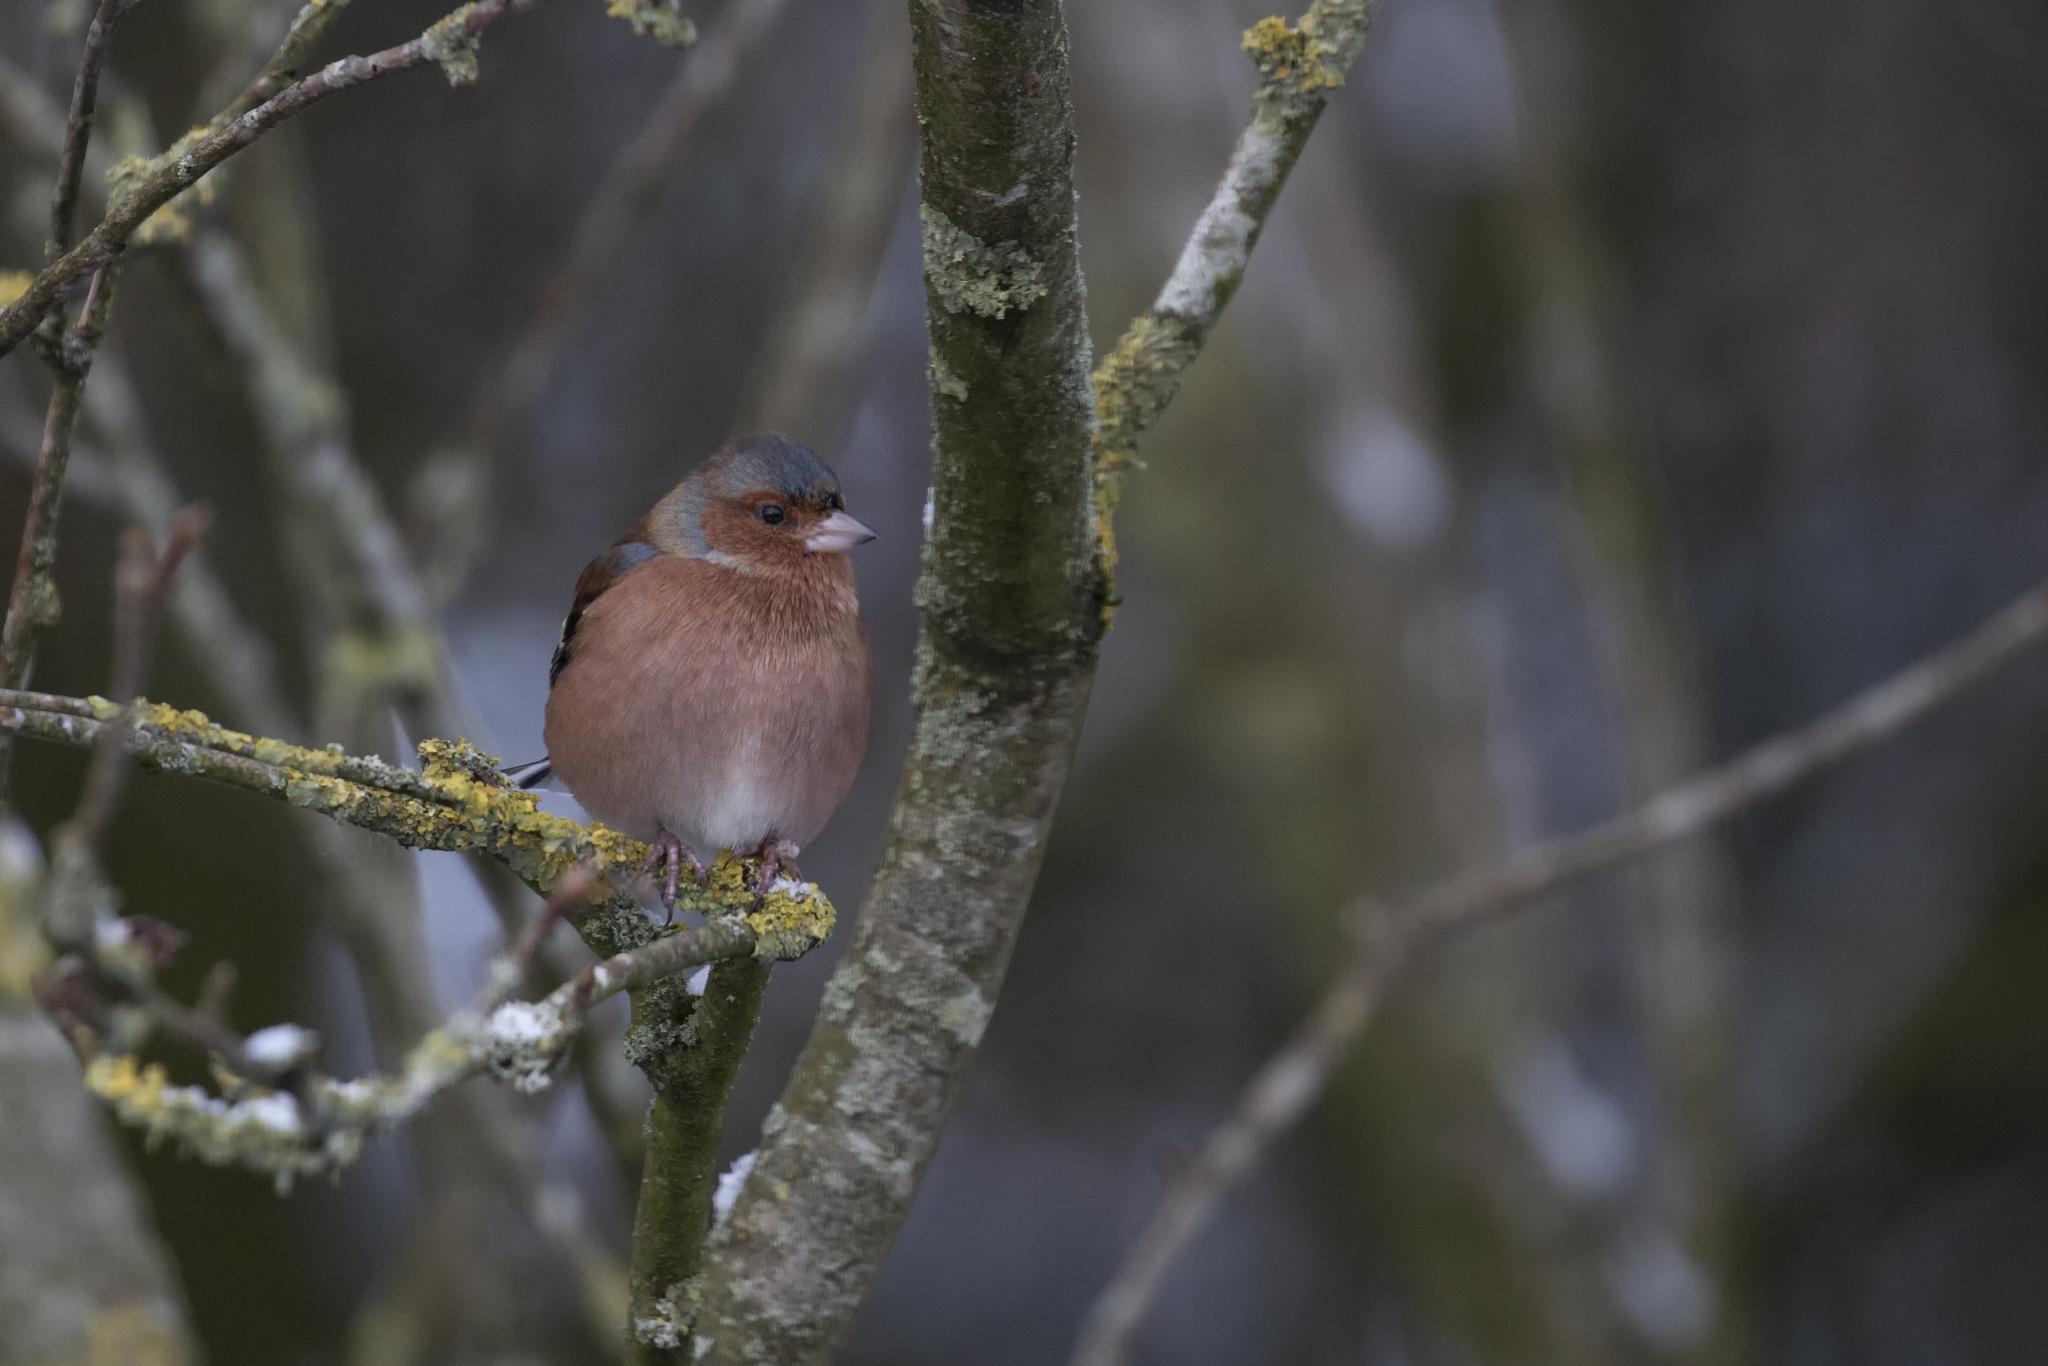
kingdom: Animalia
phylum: Chordata
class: Aves
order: Passeriformes
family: Fringillidae
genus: Fringilla
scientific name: Fringilla coelebs
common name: Common chaffinch
